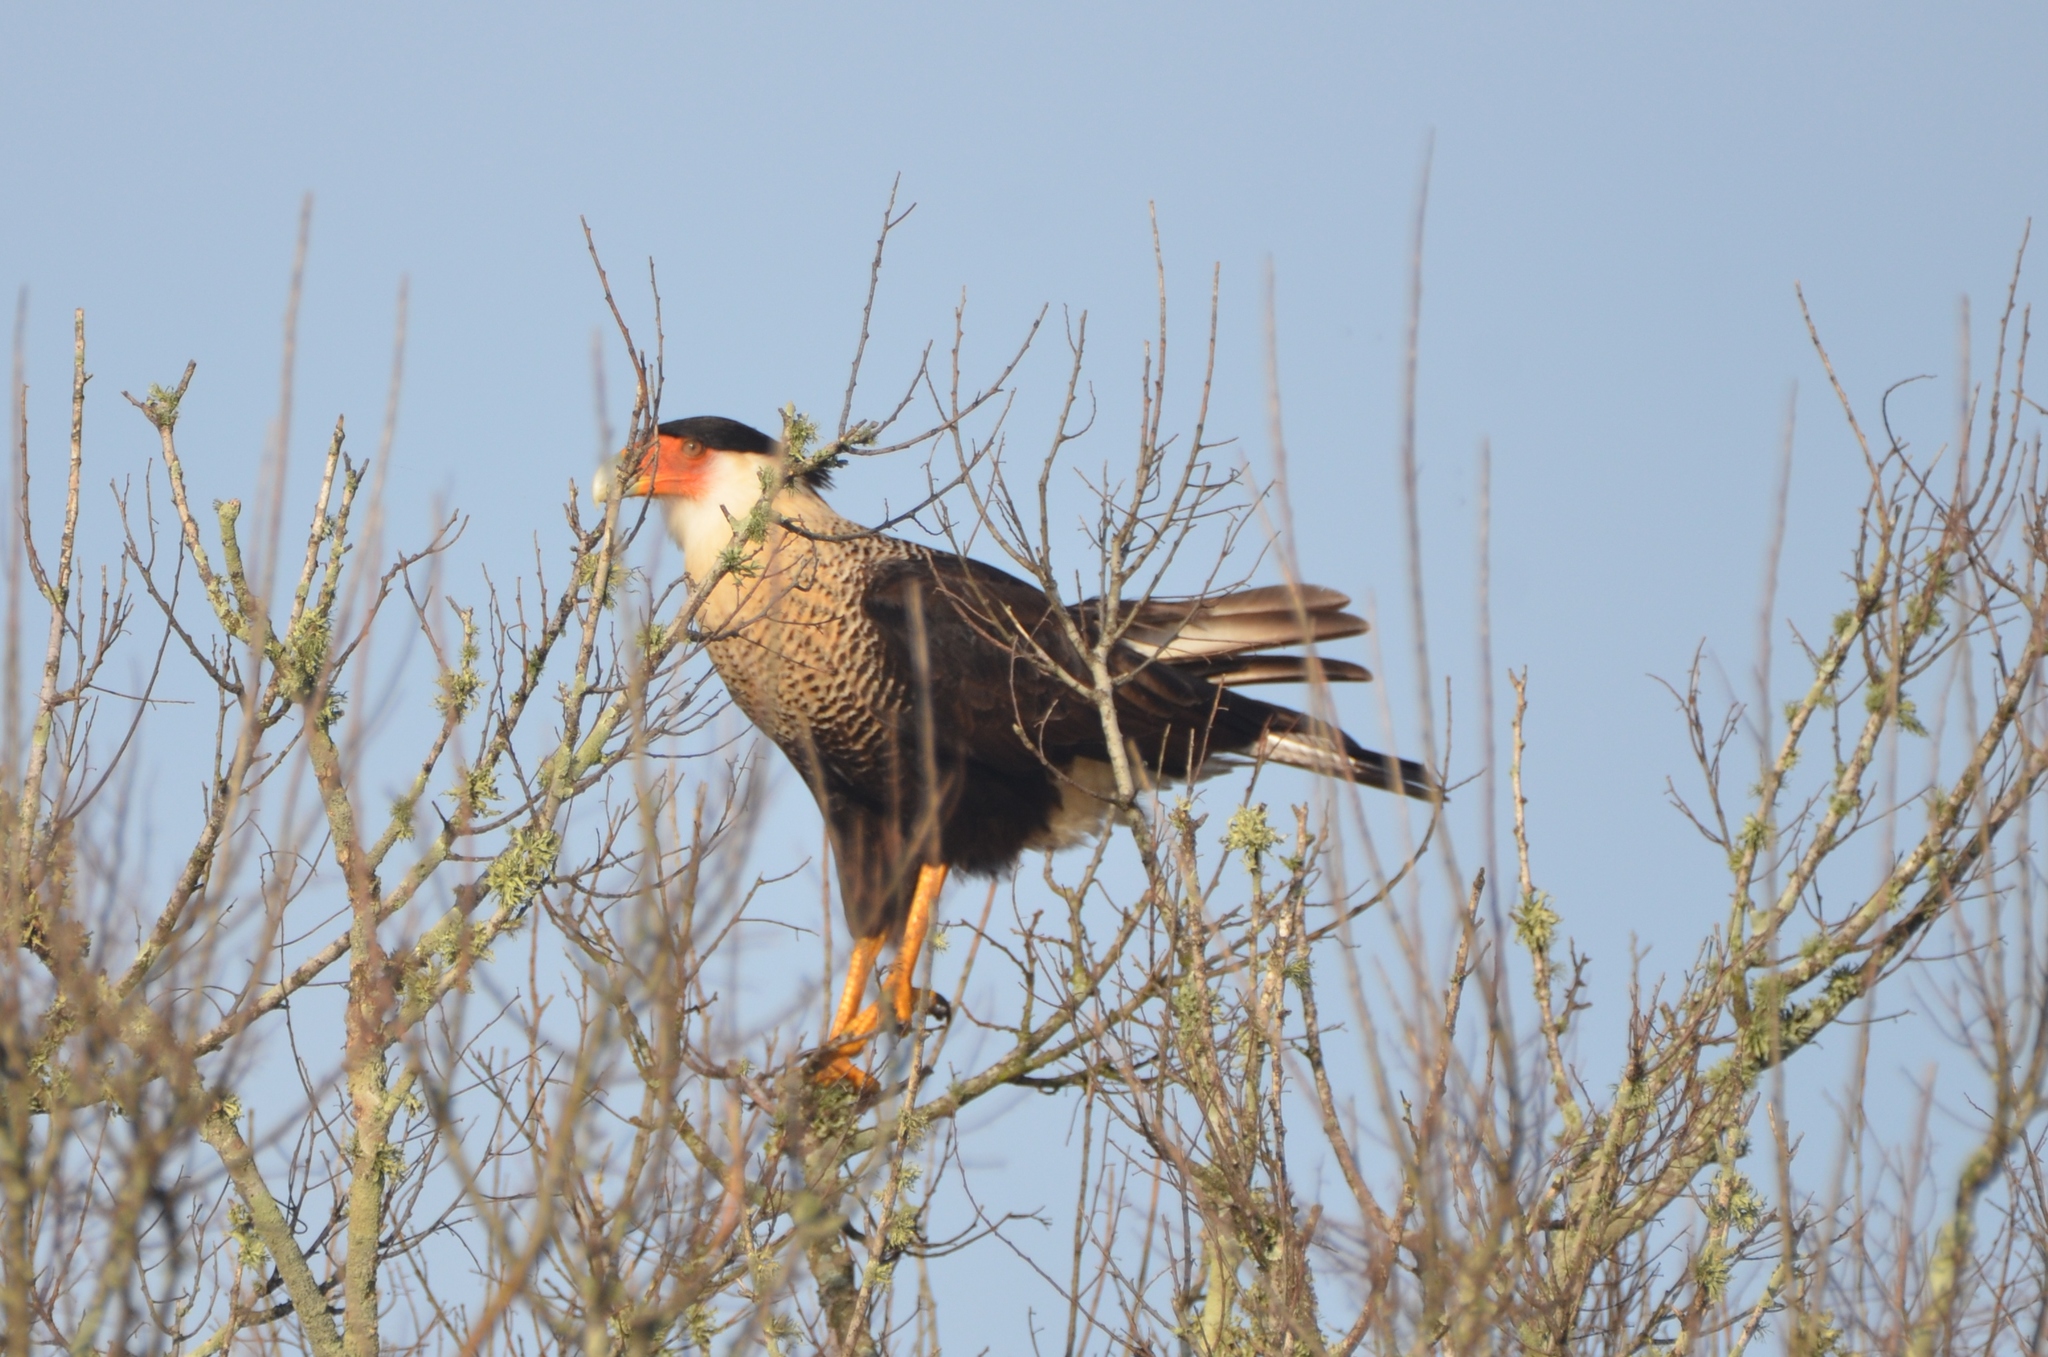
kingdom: Animalia
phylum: Chordata
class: Aves
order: Falconiformes
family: Falconidae
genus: Caracara
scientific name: Caracara plancus
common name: Southern caracara
